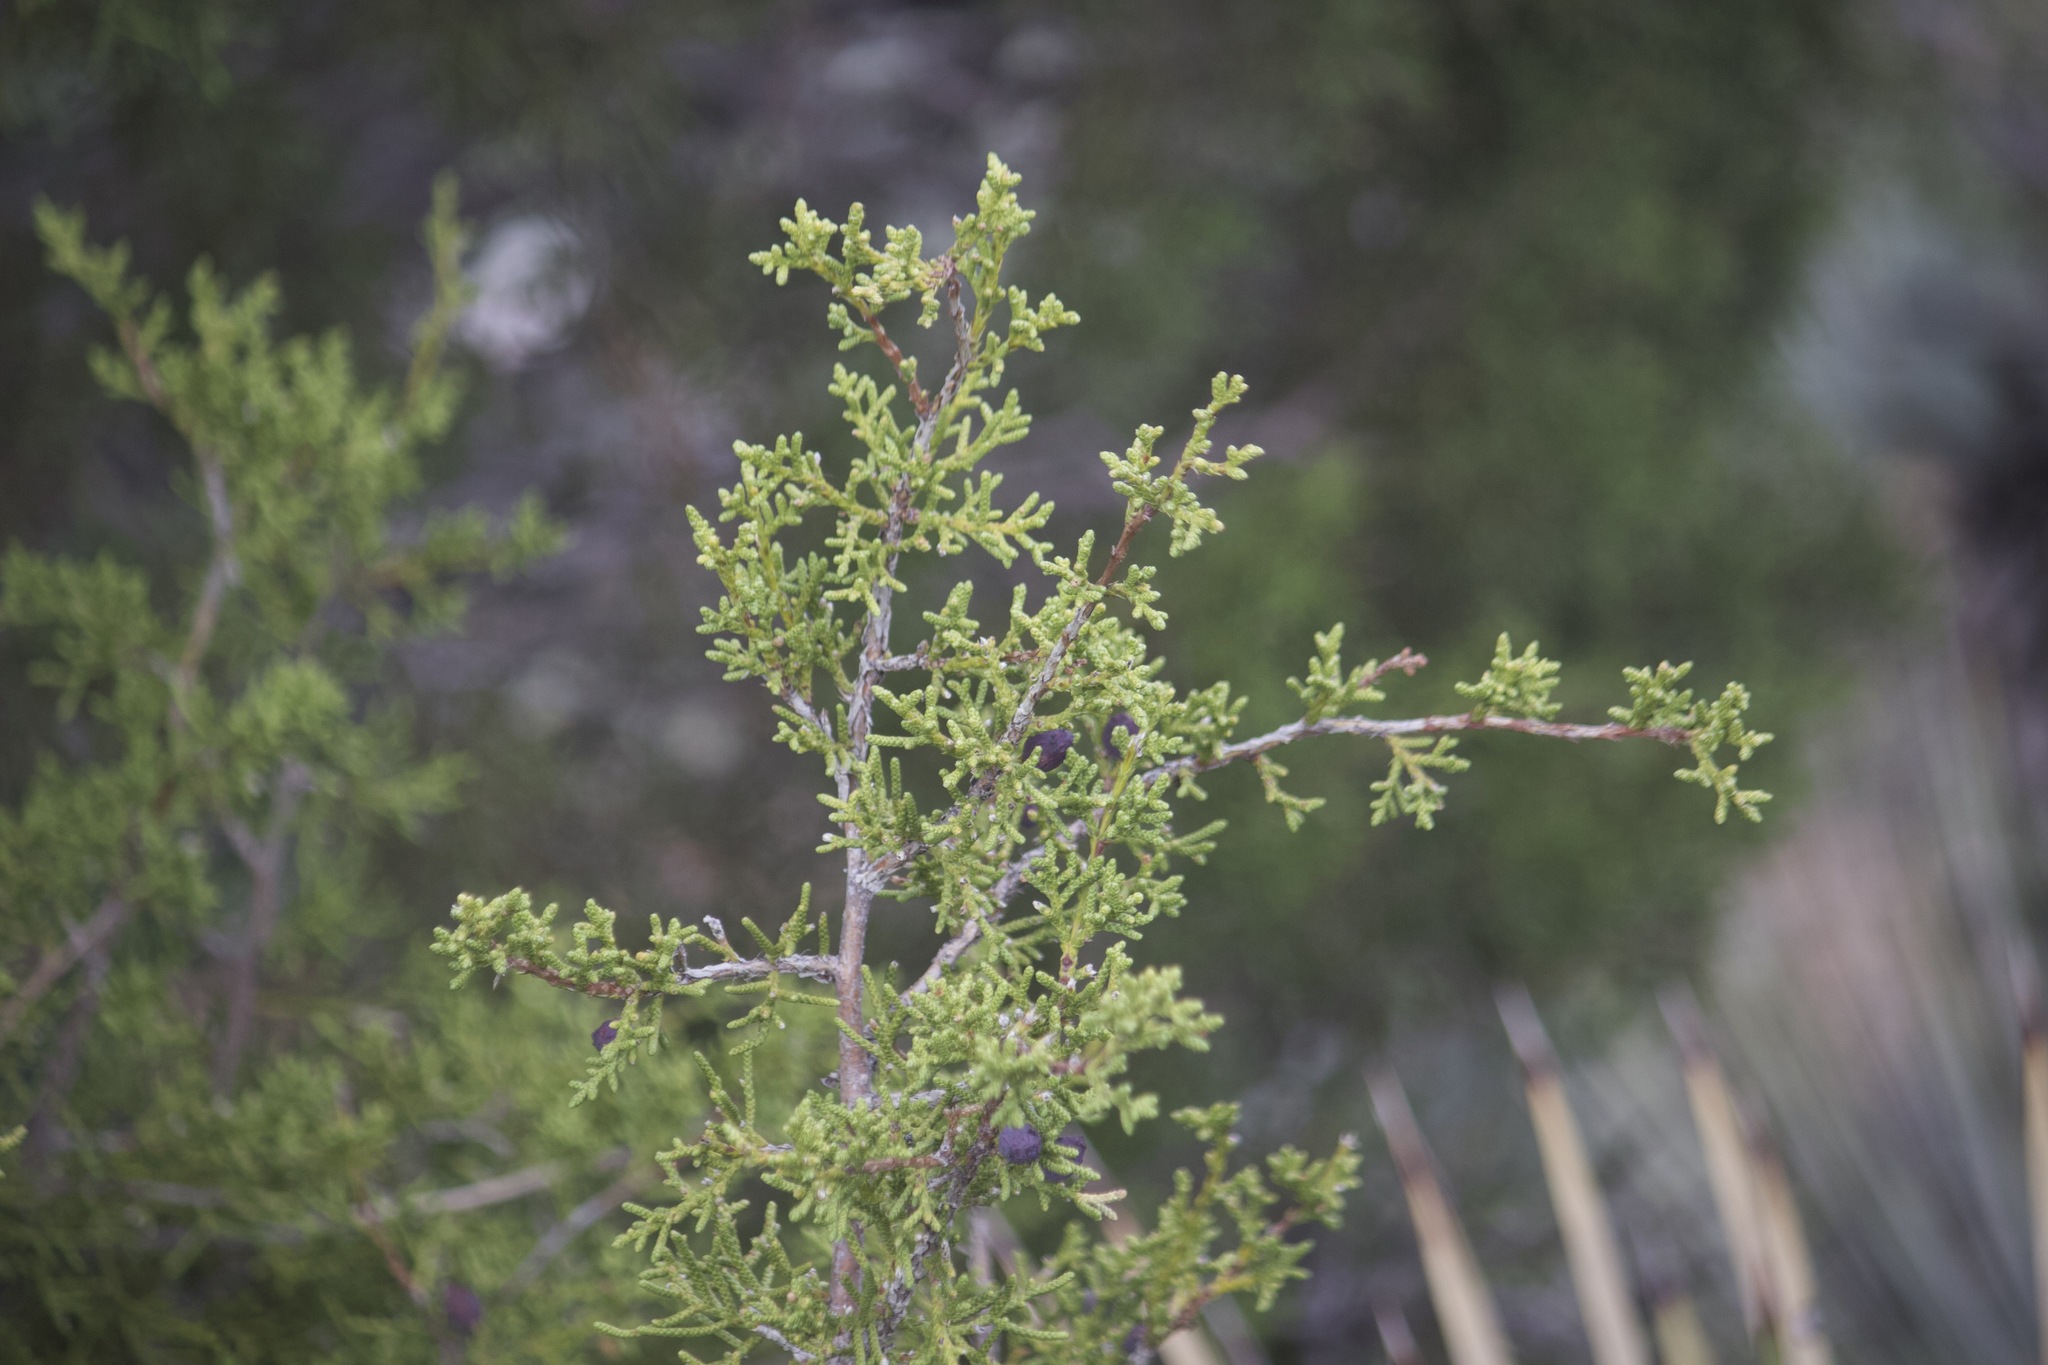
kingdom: Plantae
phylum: Tracheophyta
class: Pinopsida
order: Pinales
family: Cupressaceae
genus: Juniperus
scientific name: Juniperus californica
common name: California juniper
